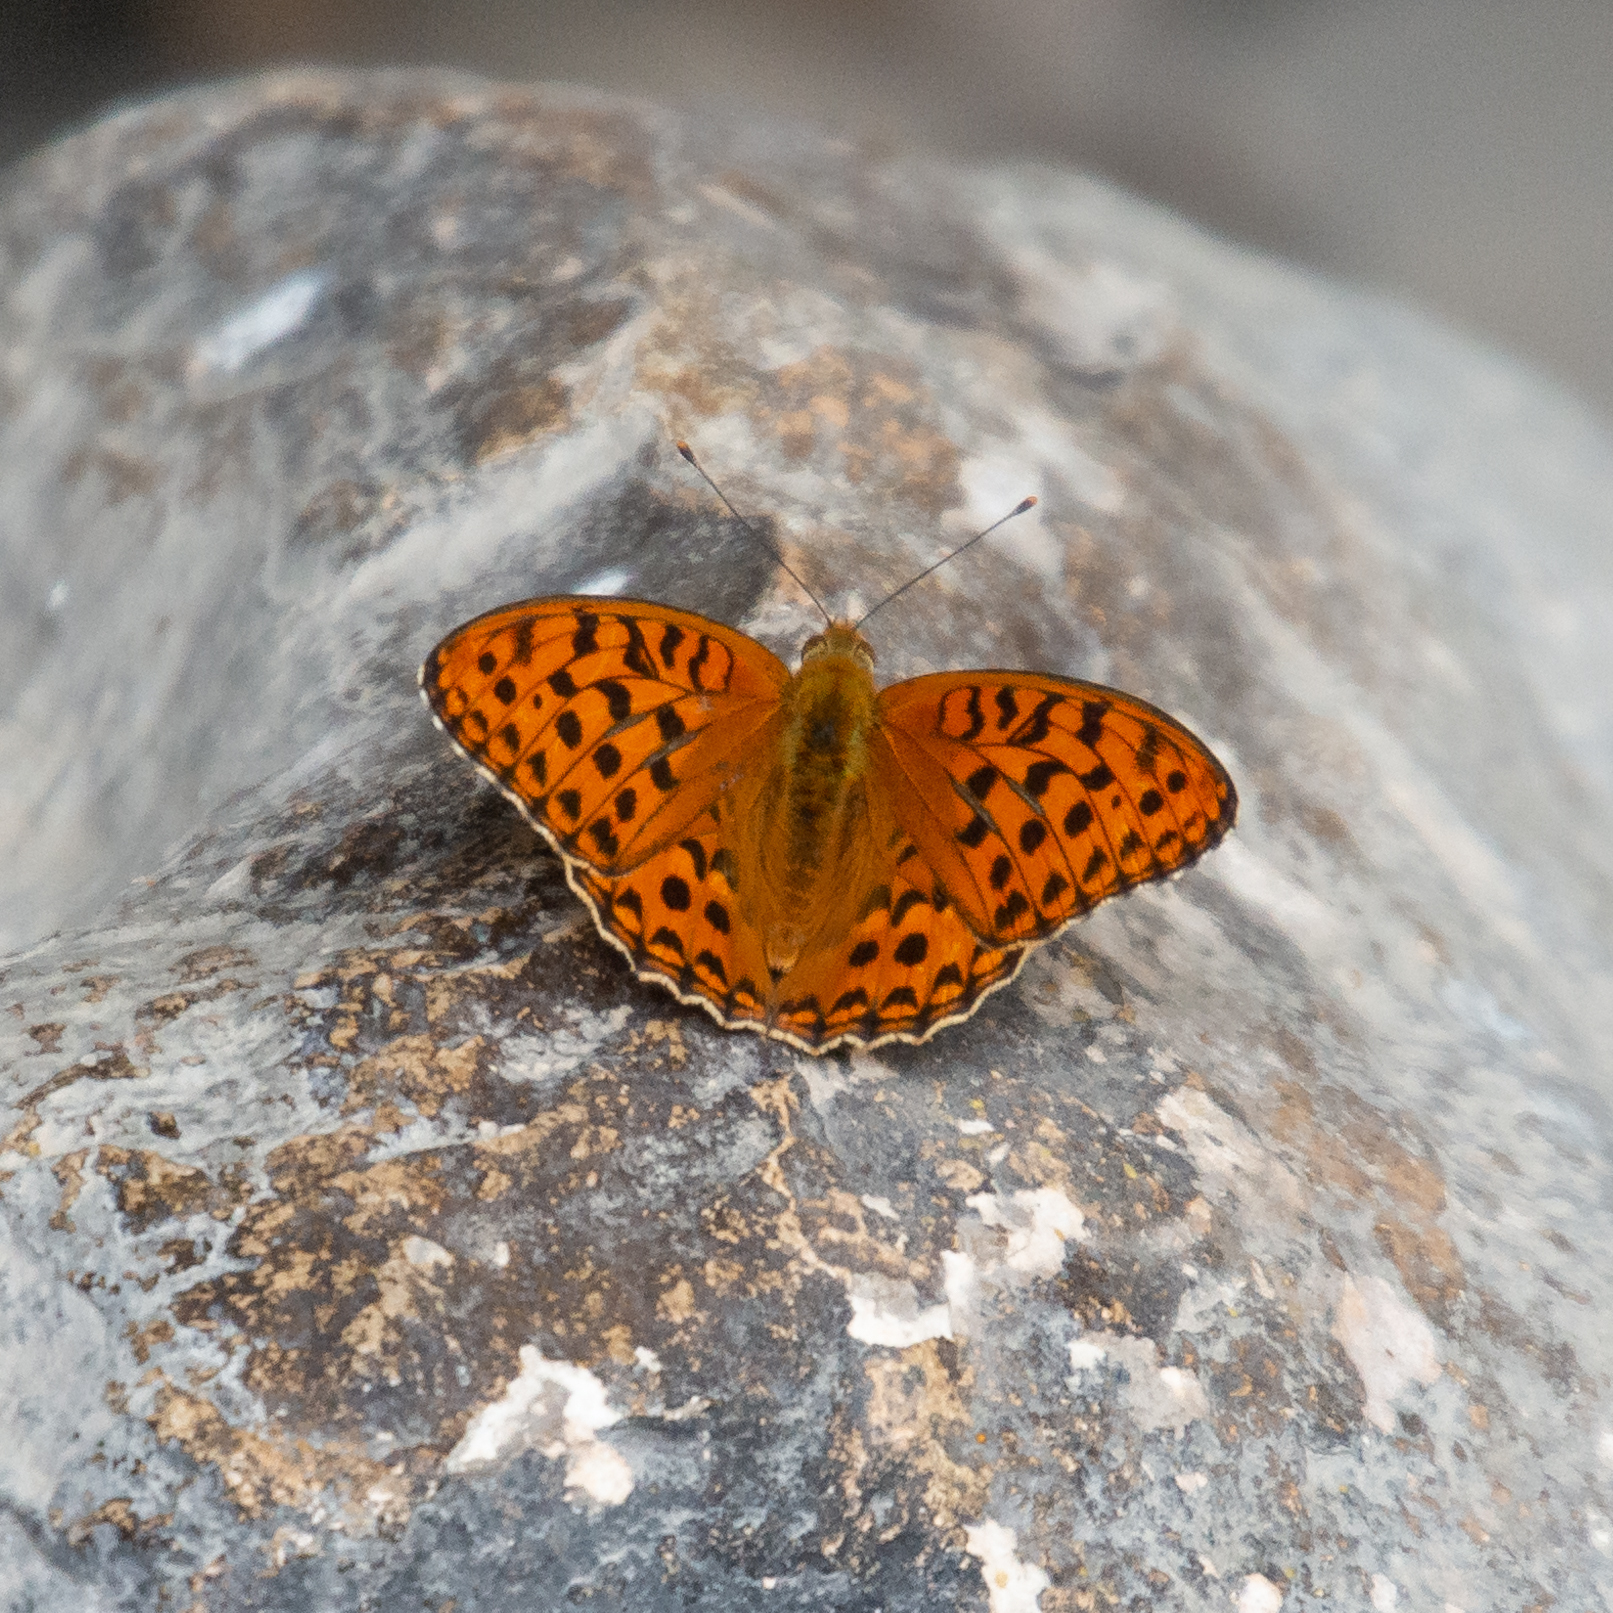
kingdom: Animalia
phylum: Arthropoda
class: Insecta
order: Lepidoptera
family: Nymphalidae
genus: Fabriciana
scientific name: Fabriciana adippe
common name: High brown fritillary
